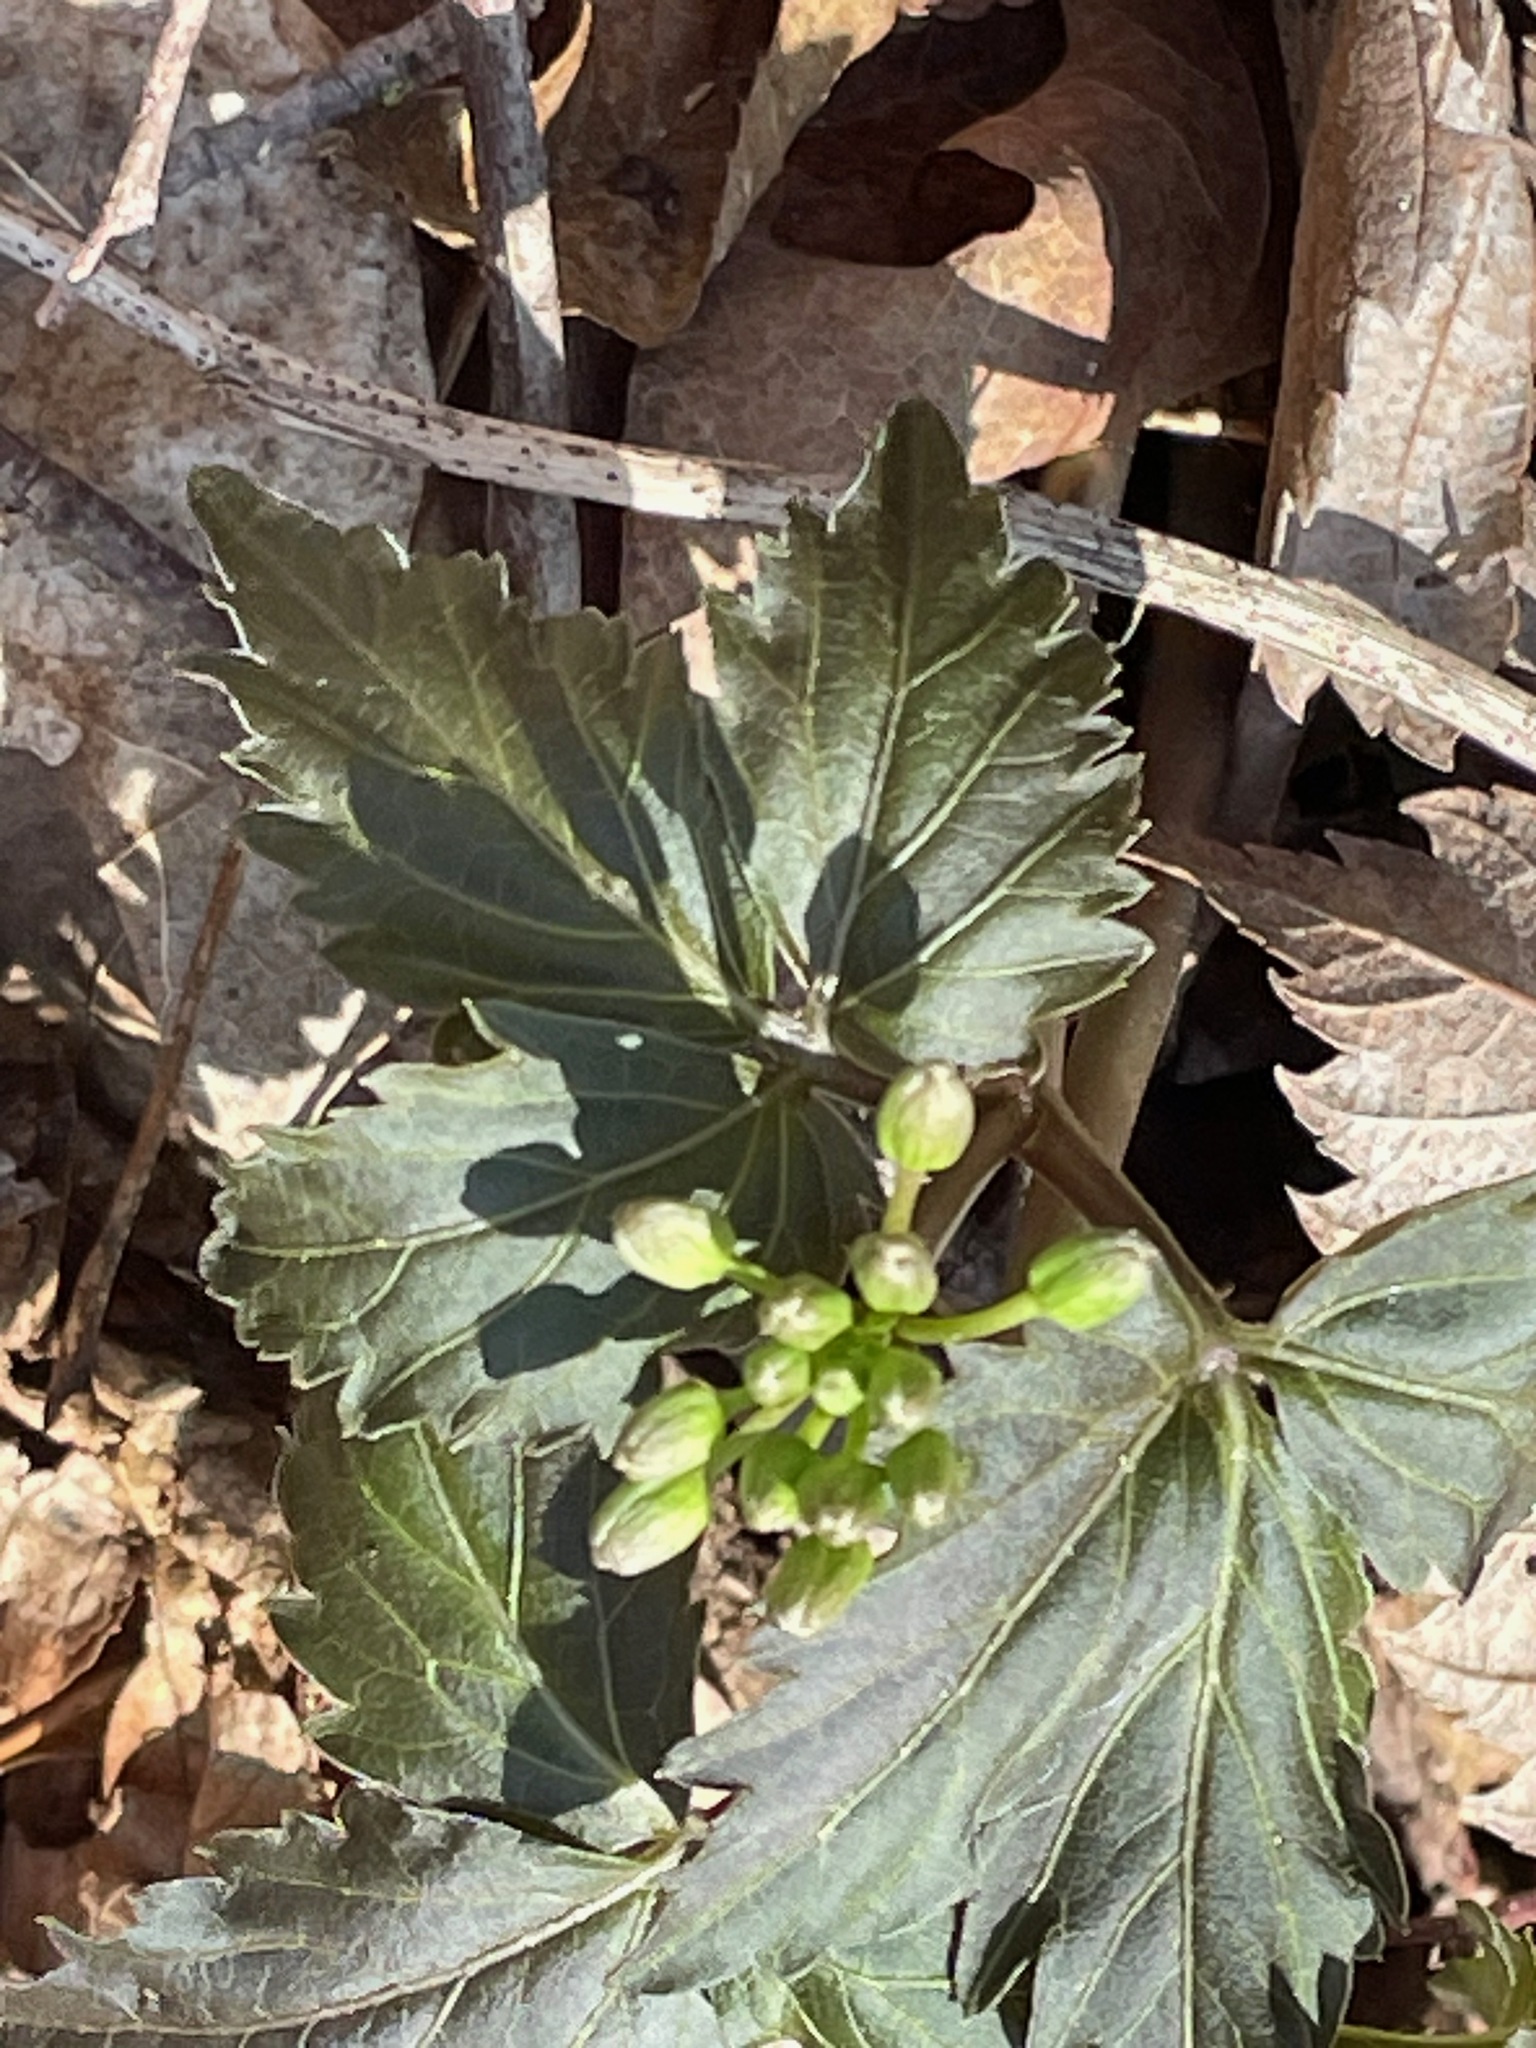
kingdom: Plantae
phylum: Tracheophyta
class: Magnoliopsida
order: Brassicales
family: Brassicaceae
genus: Cardamine
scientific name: Cardamine diphylla
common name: Broad-leaved toothwort
